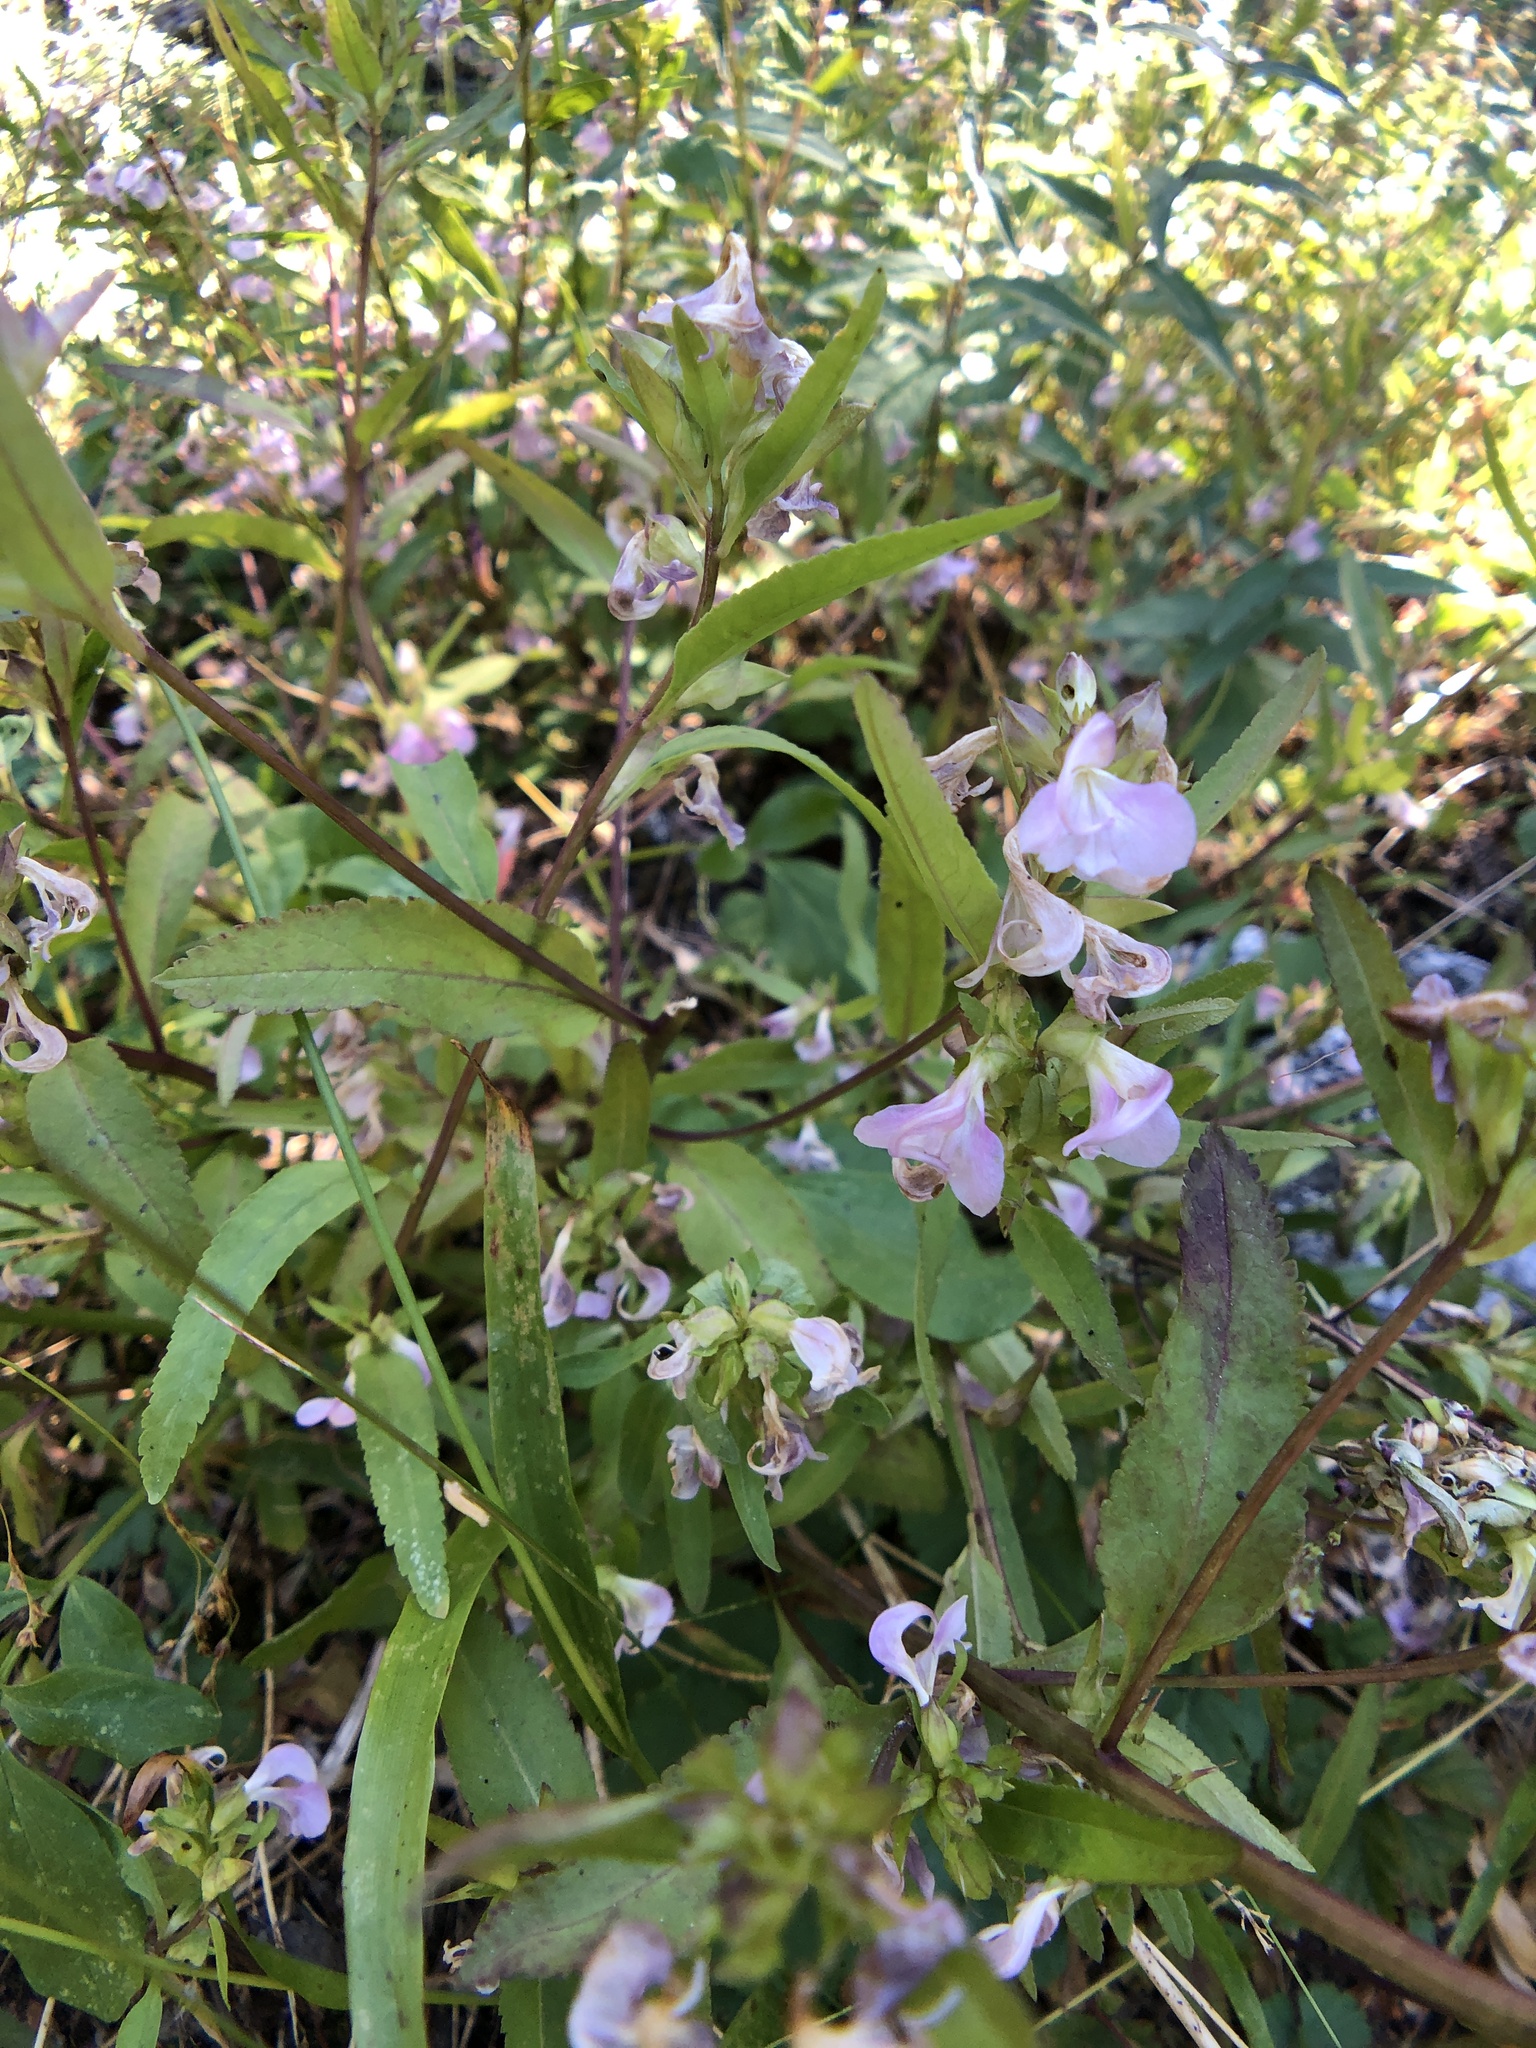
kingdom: Plantae
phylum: Tracheophyta
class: Magnoliopsida
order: Lamiales
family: Orobanchaceae
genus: Pedicularis
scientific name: Pedicularis racemosa
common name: Leafy lousewort
